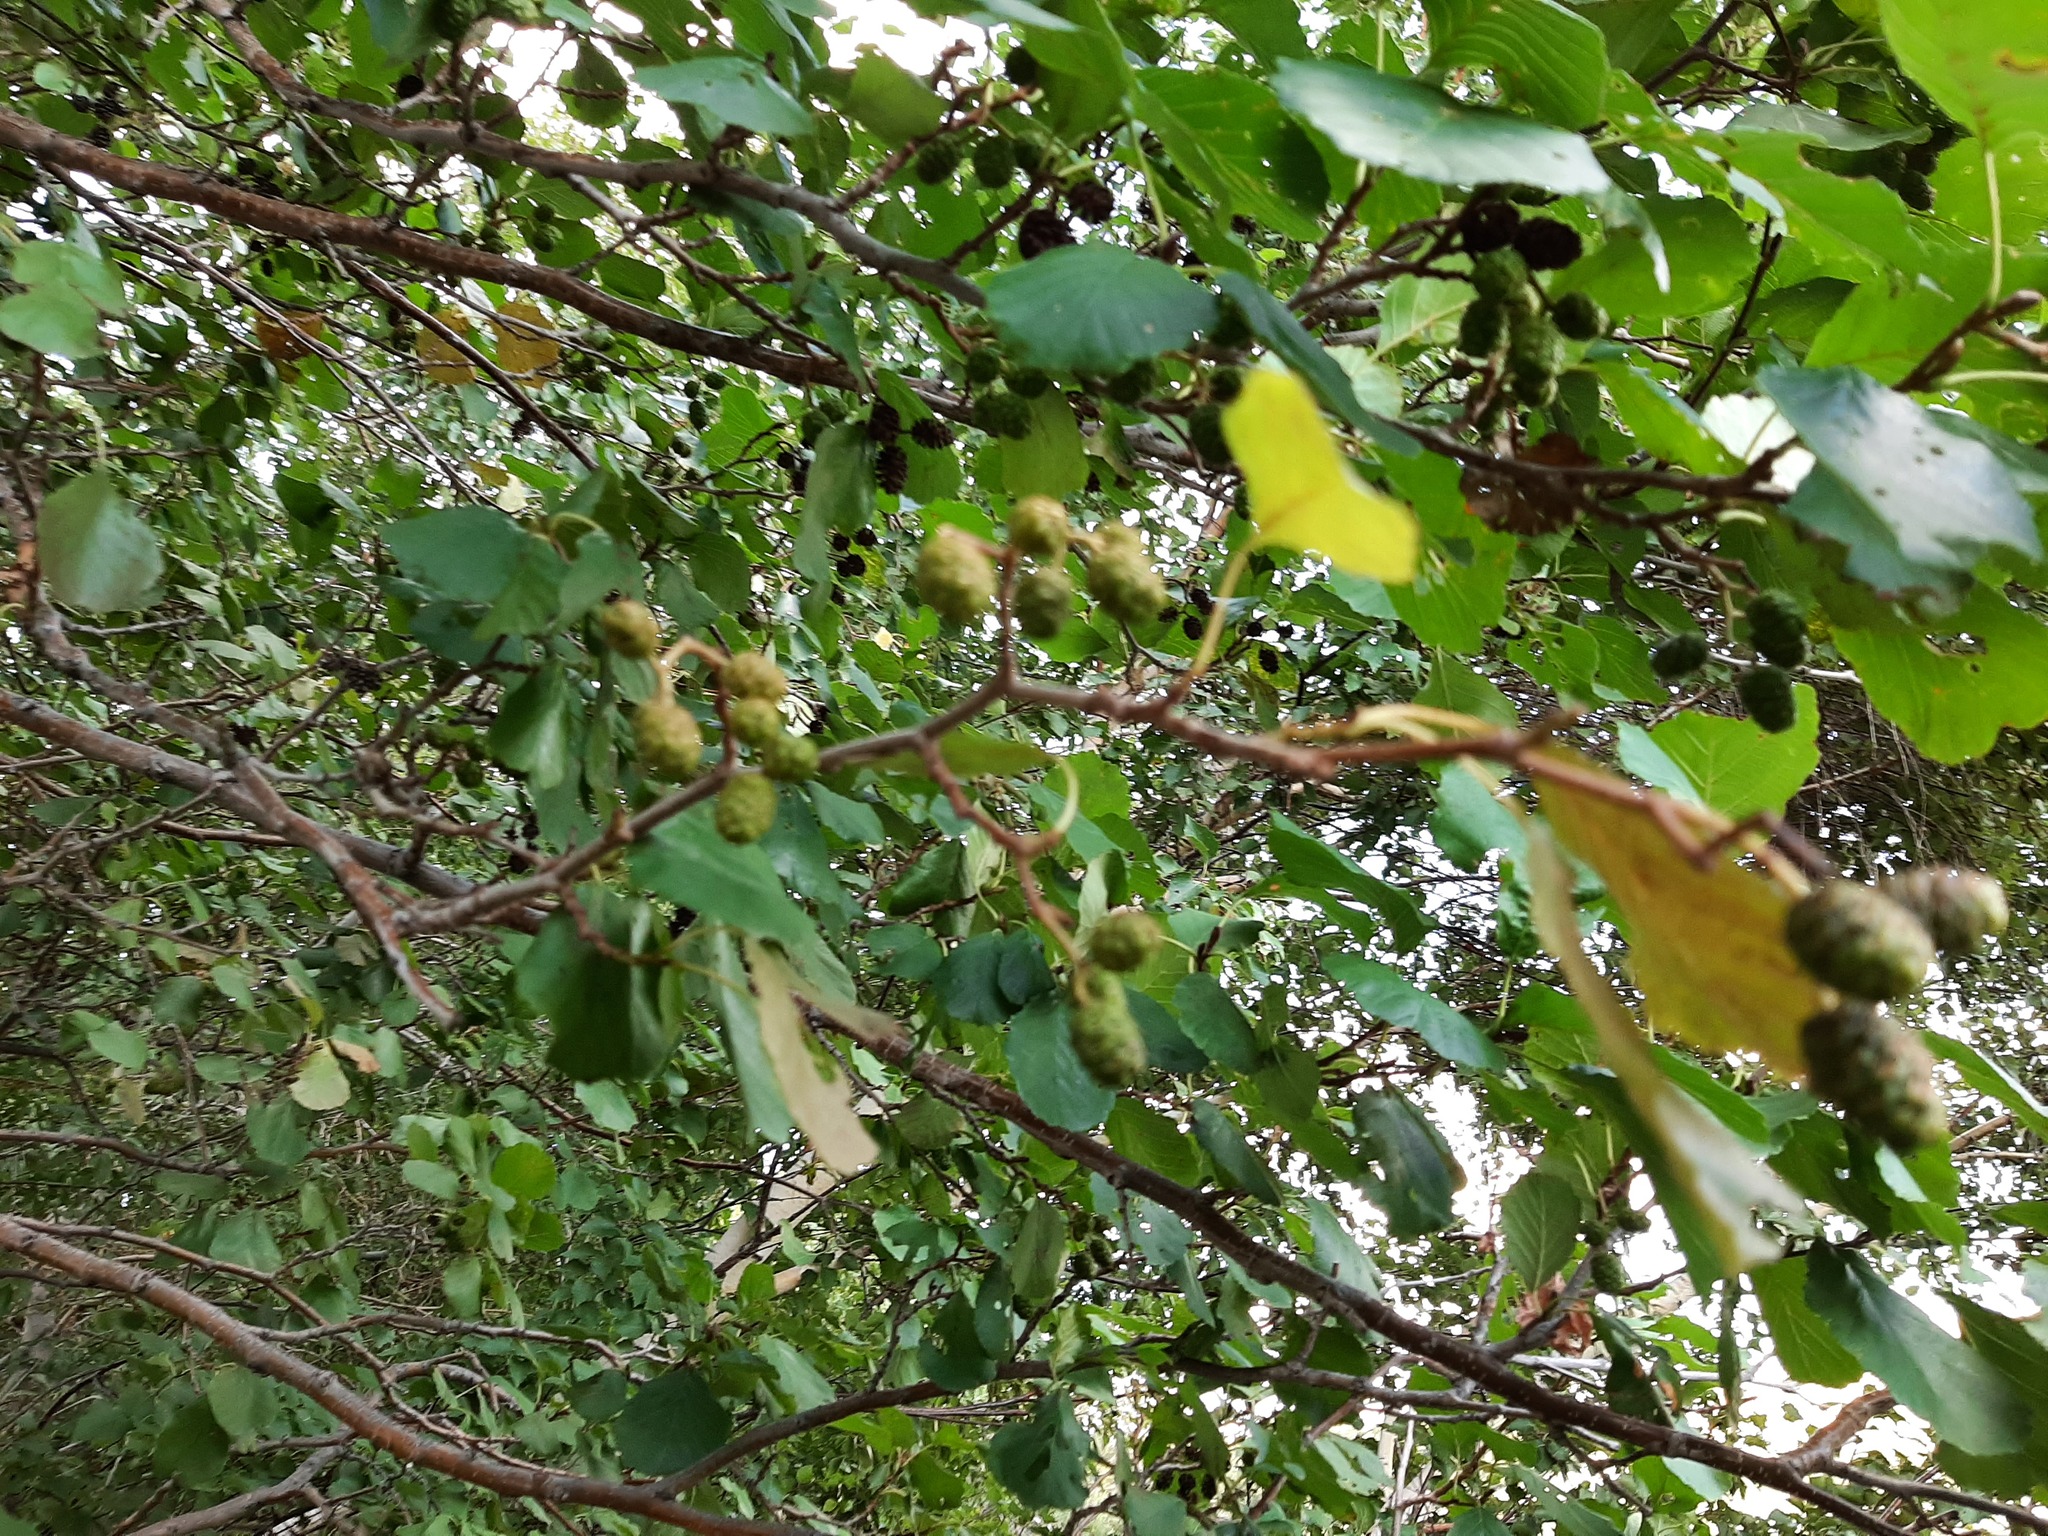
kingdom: Plantae
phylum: Tracheophyta
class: Magnoliopsida
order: Fagales
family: Betulaceae
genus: Alnus
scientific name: Alnus glutinosa
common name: Black alder
